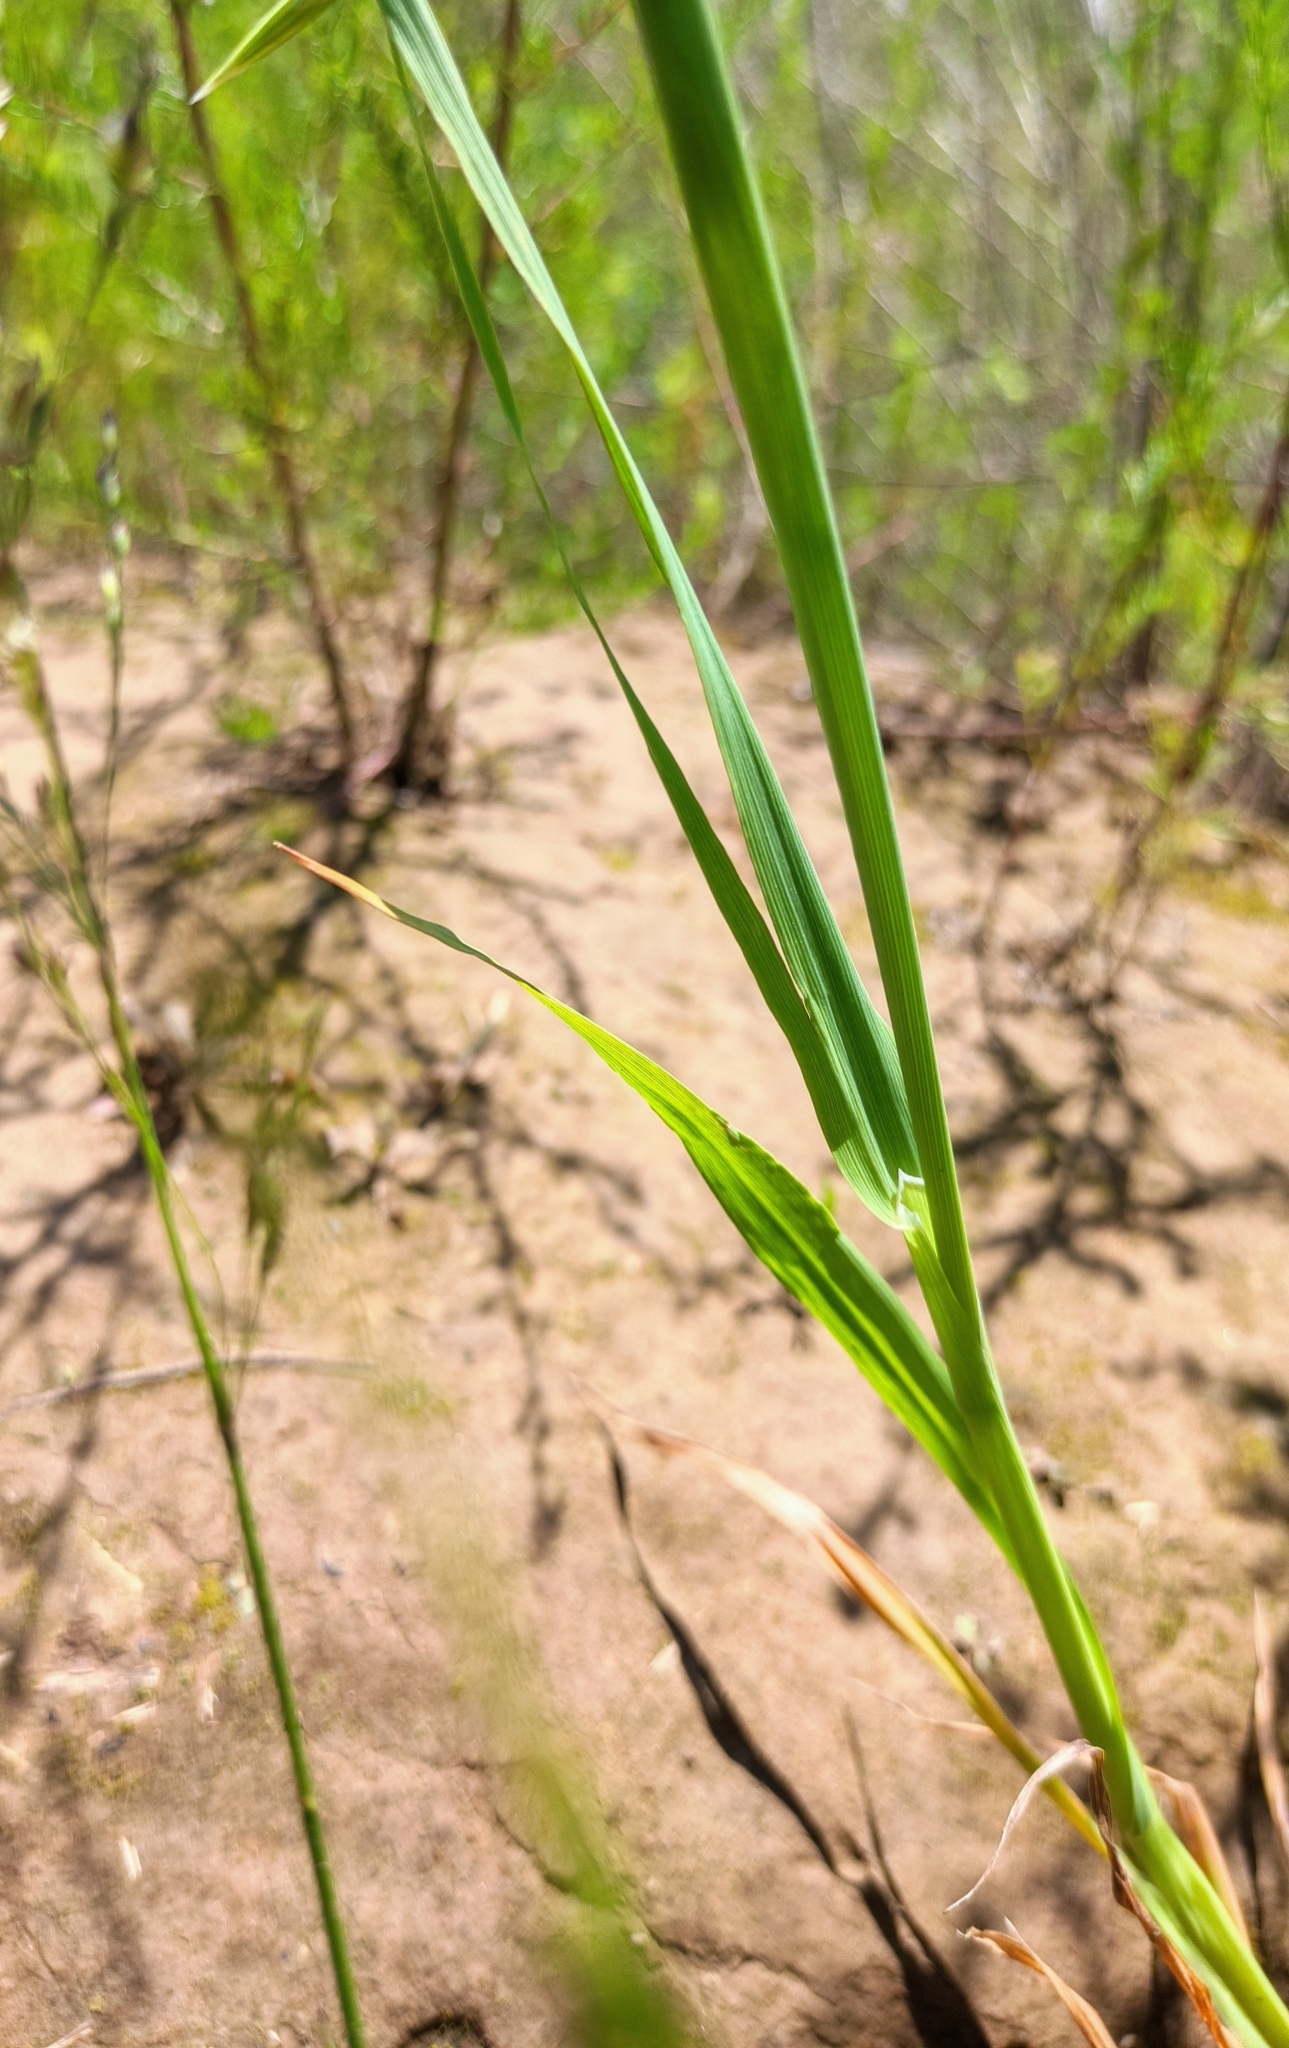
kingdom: Plantae
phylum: Tracheophyta
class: Liliopsida
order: Poales
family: Poaceae
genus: Avena
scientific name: Avena sativa
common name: Oat
